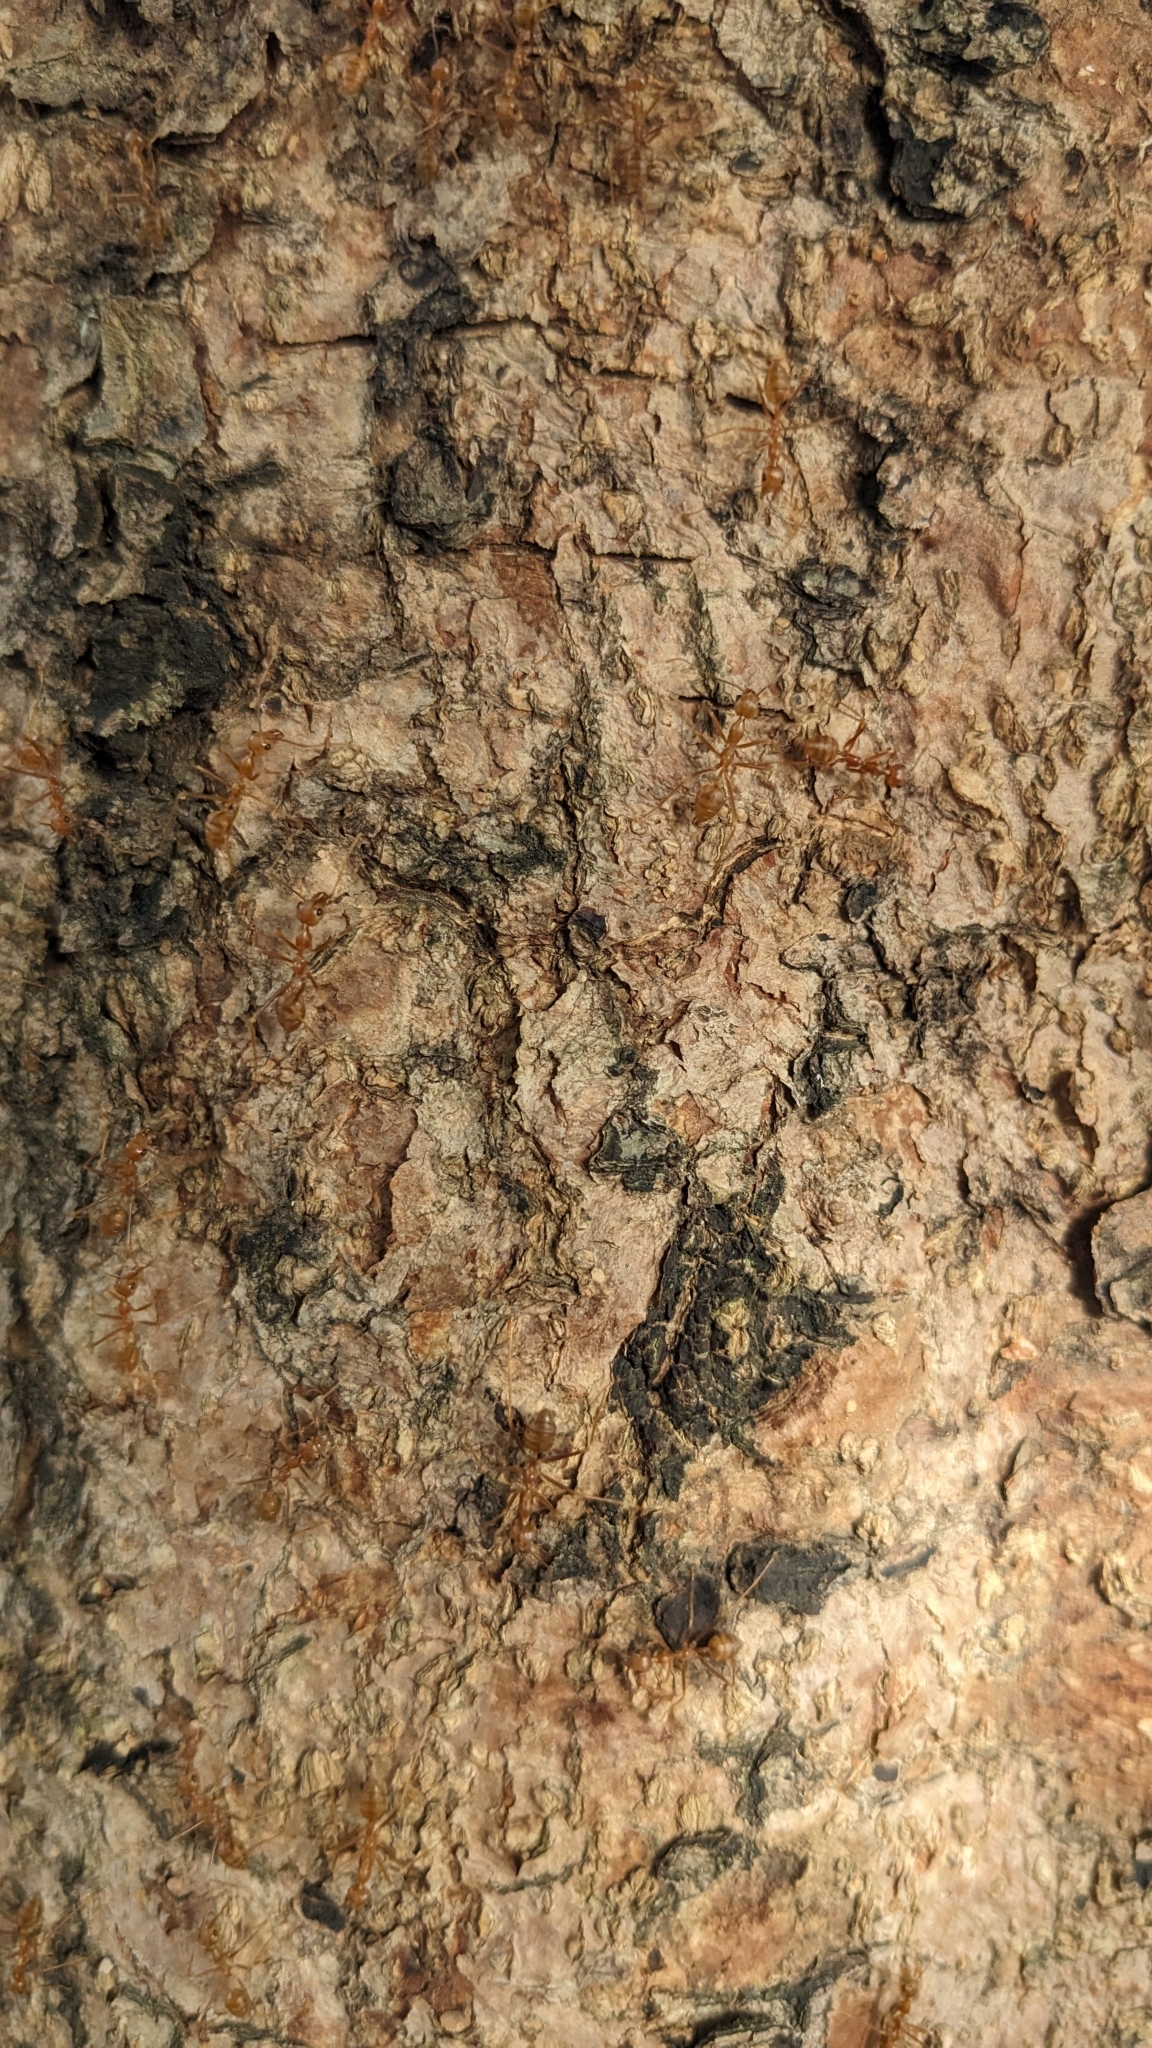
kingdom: Animalia
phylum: Arthropoda
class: Insecta
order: Hymenoptera
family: Formicidae
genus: Oecophylla
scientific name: Oecophylla smaragdina
